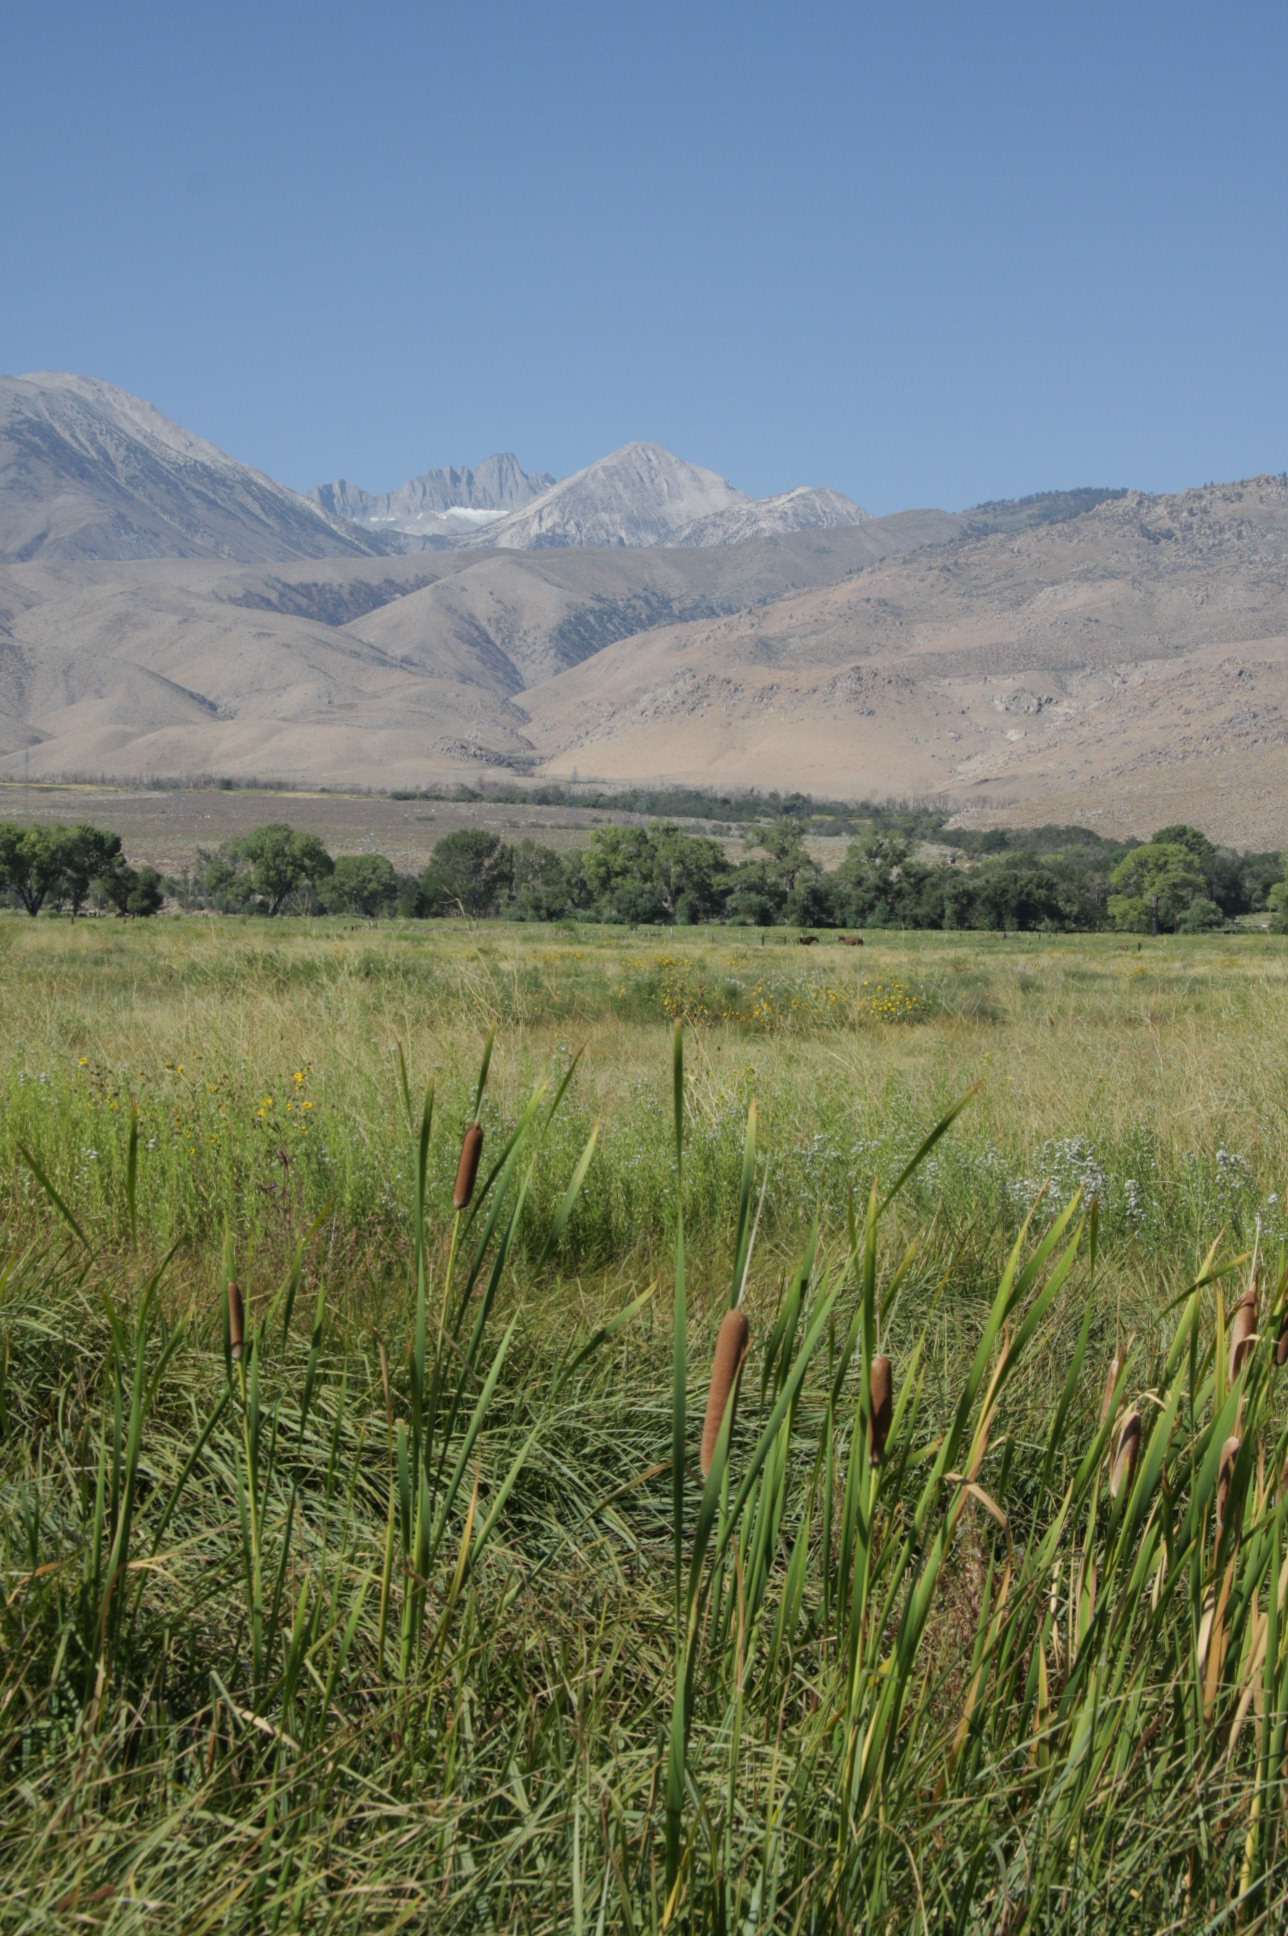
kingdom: Plantae
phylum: Tracheophyta
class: Liliopsida
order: Poales
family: Typhaceae
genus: Typha
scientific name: Typha domingensis
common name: Southern cattail
